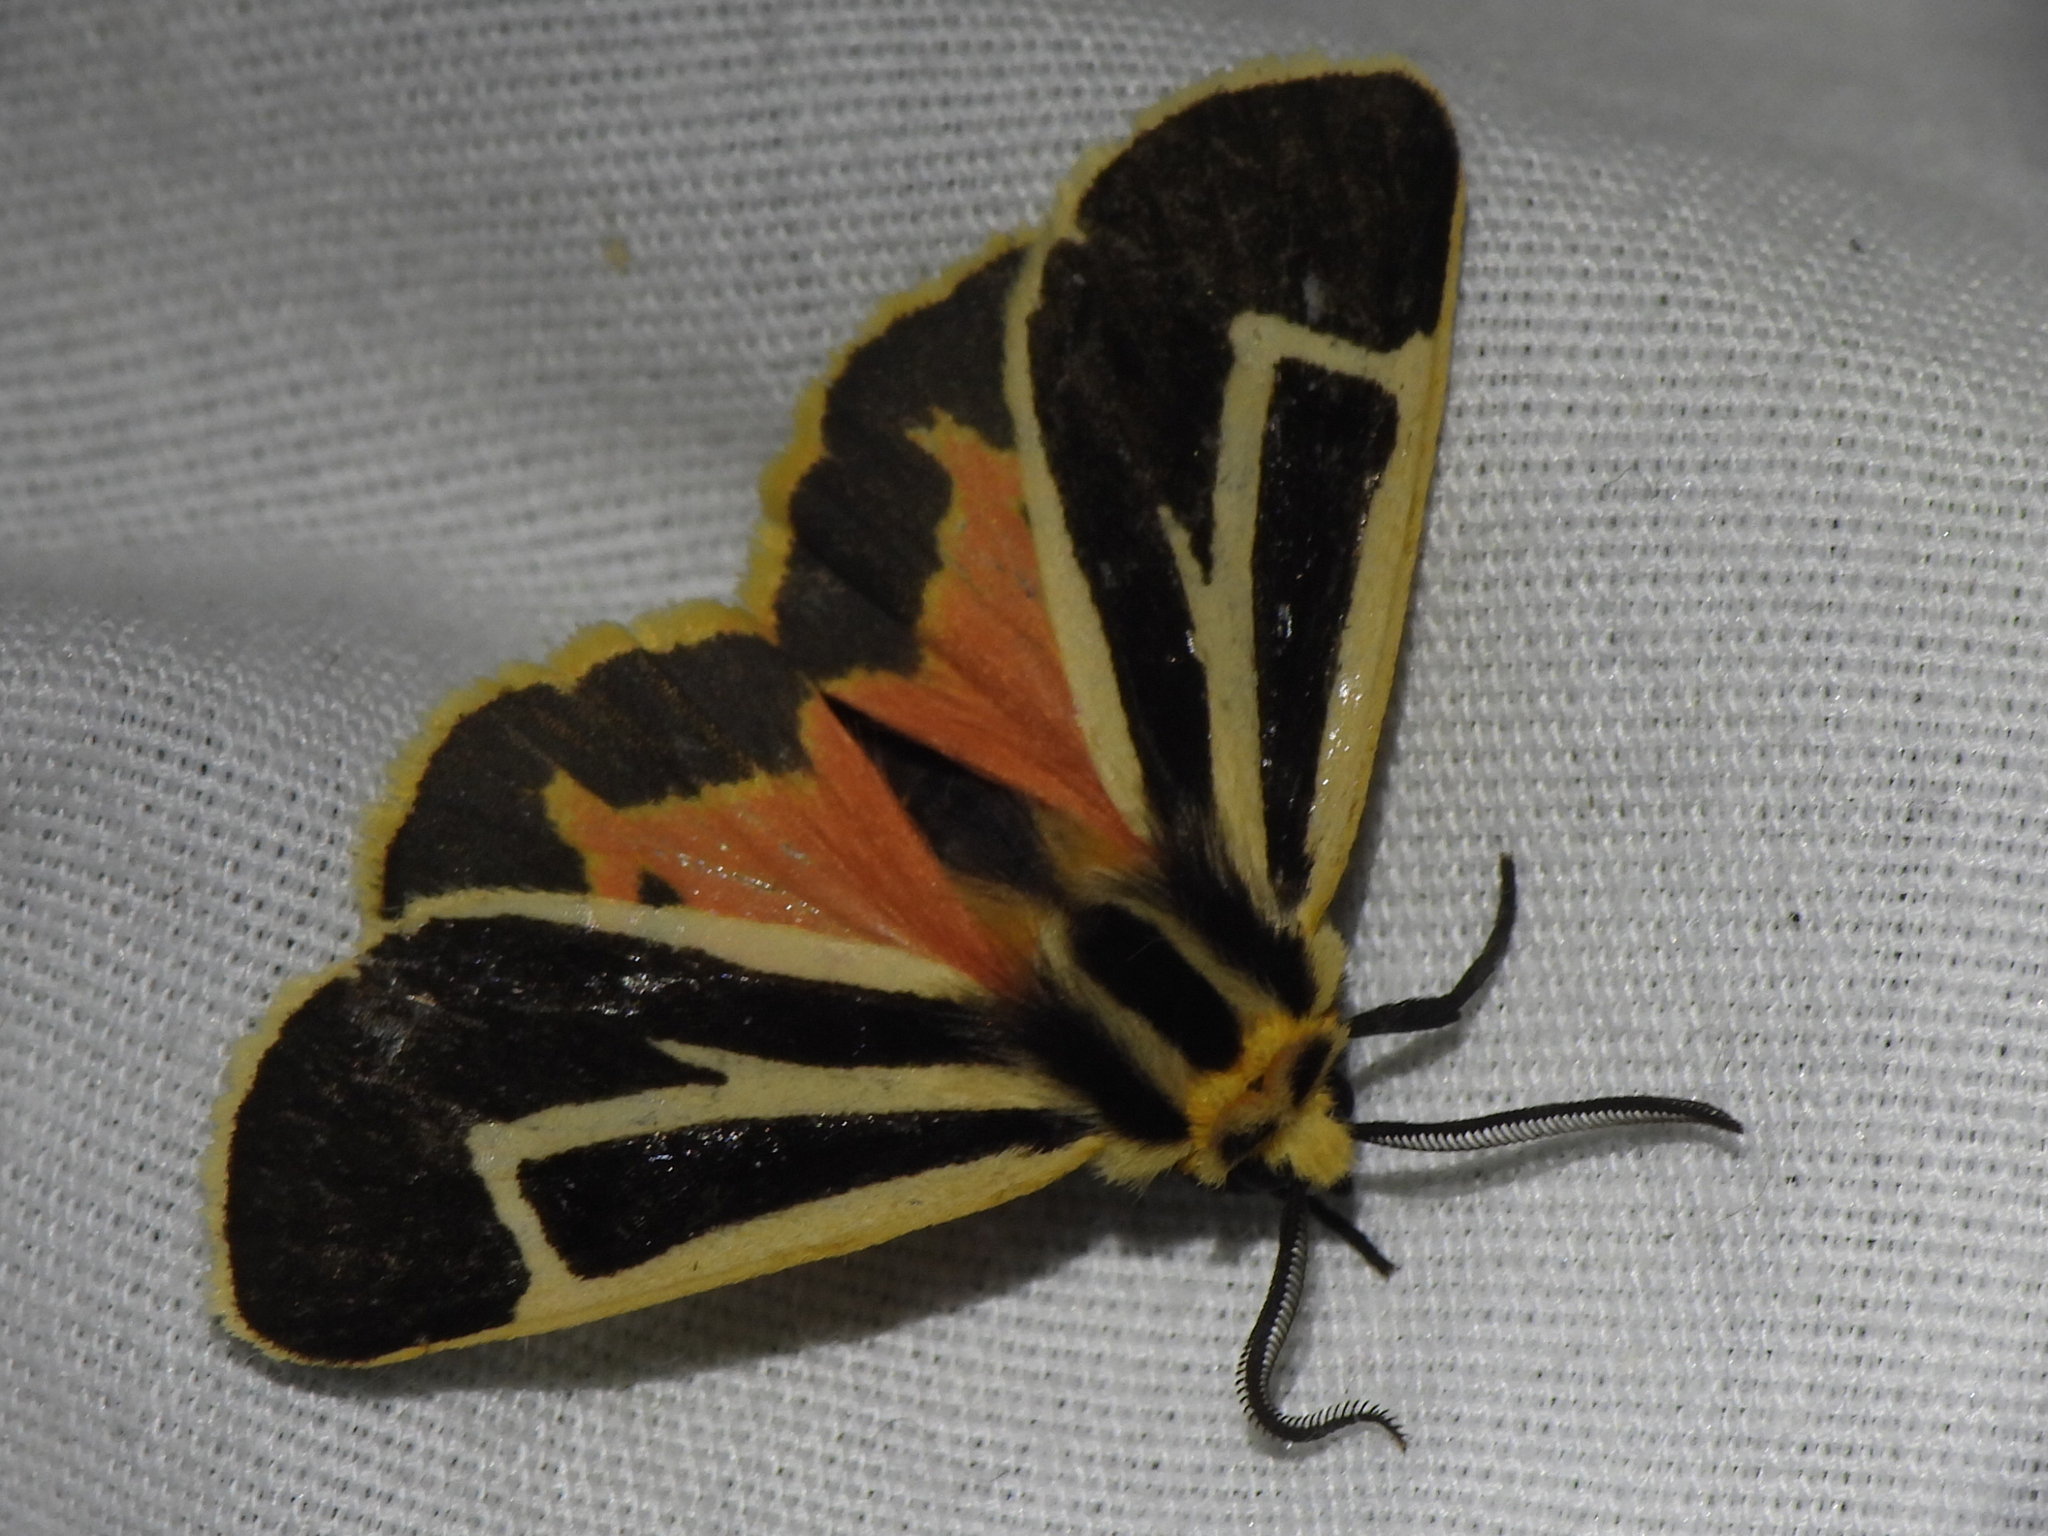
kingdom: Animalia
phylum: Arthropoda
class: Insecta
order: Lepidoptera
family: Erebidae
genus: Apantesis
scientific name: Apantesis vittata
